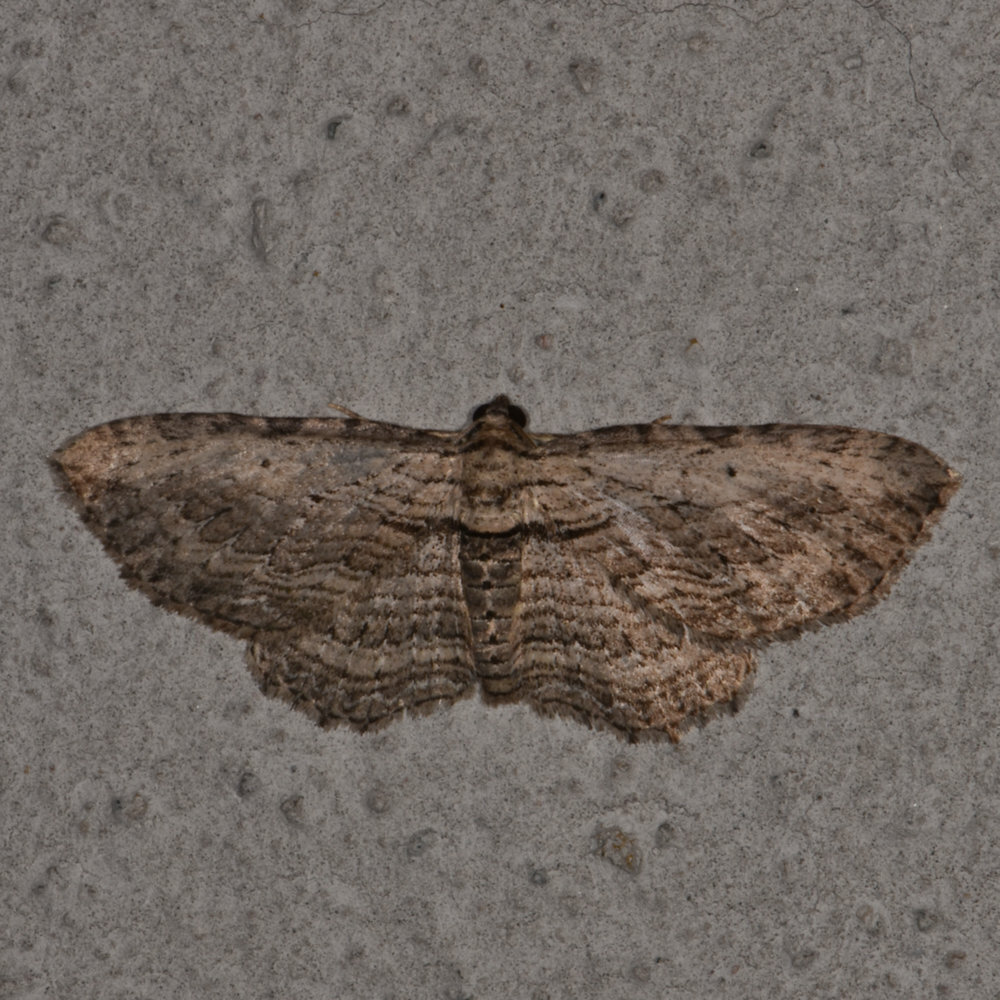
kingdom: Animalia
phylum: Arthropoda
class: Insecta
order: Lepidoptera
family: Geometridae
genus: Horisme
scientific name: Horisme intestinata
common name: Brown bark carpet
